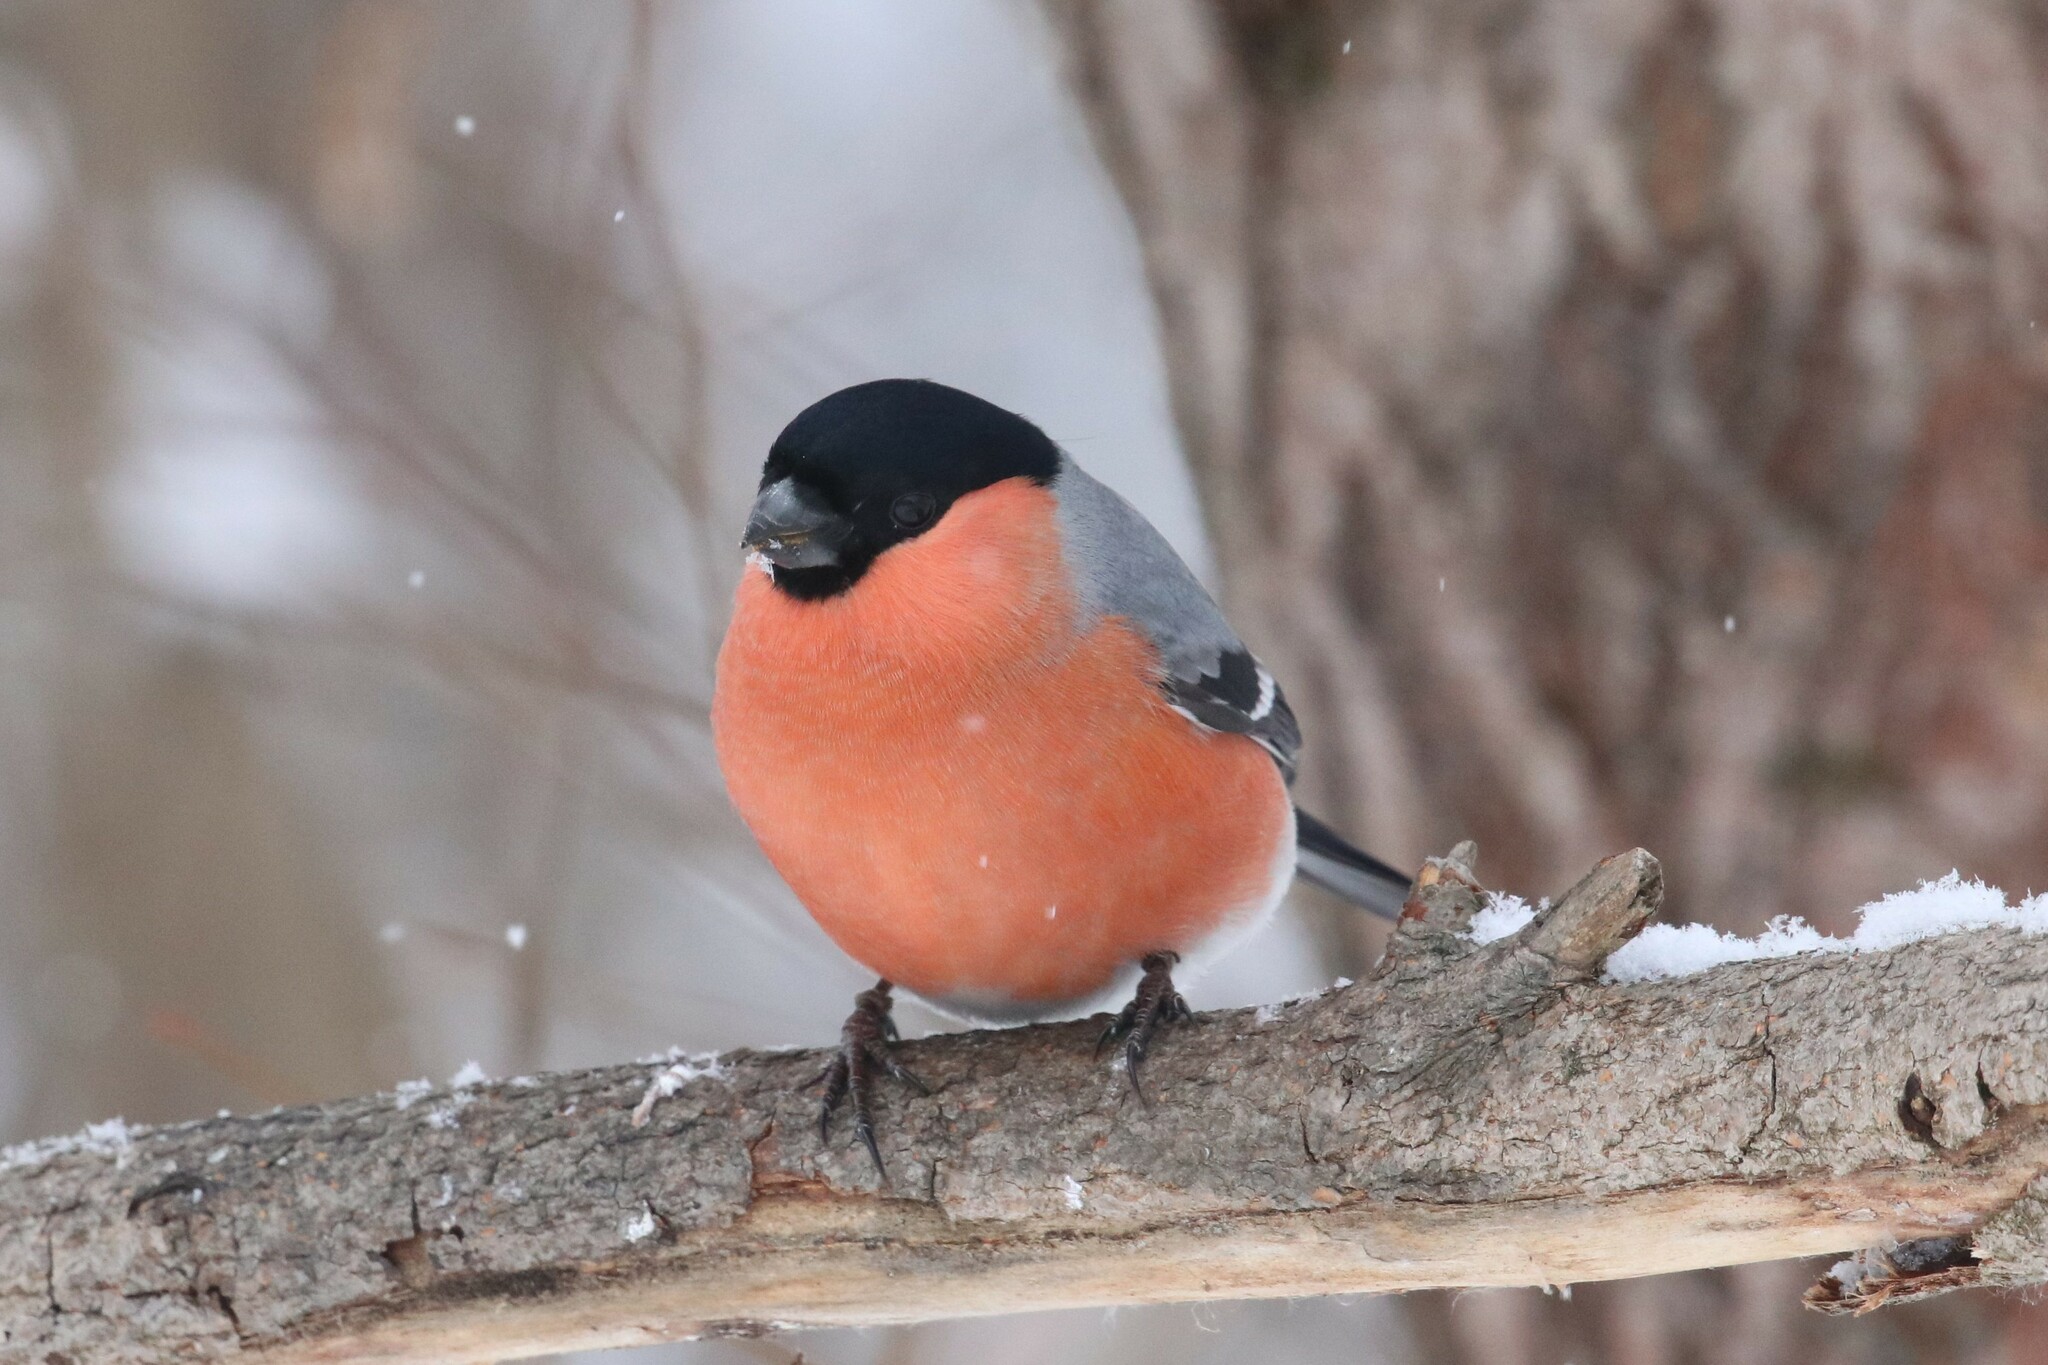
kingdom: Animalia
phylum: Chordata
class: Aves
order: Passeriformes
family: Fringillidae
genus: Pyrrhula
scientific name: Pyrrhula pyrrhula
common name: Eurasian bullfinch
